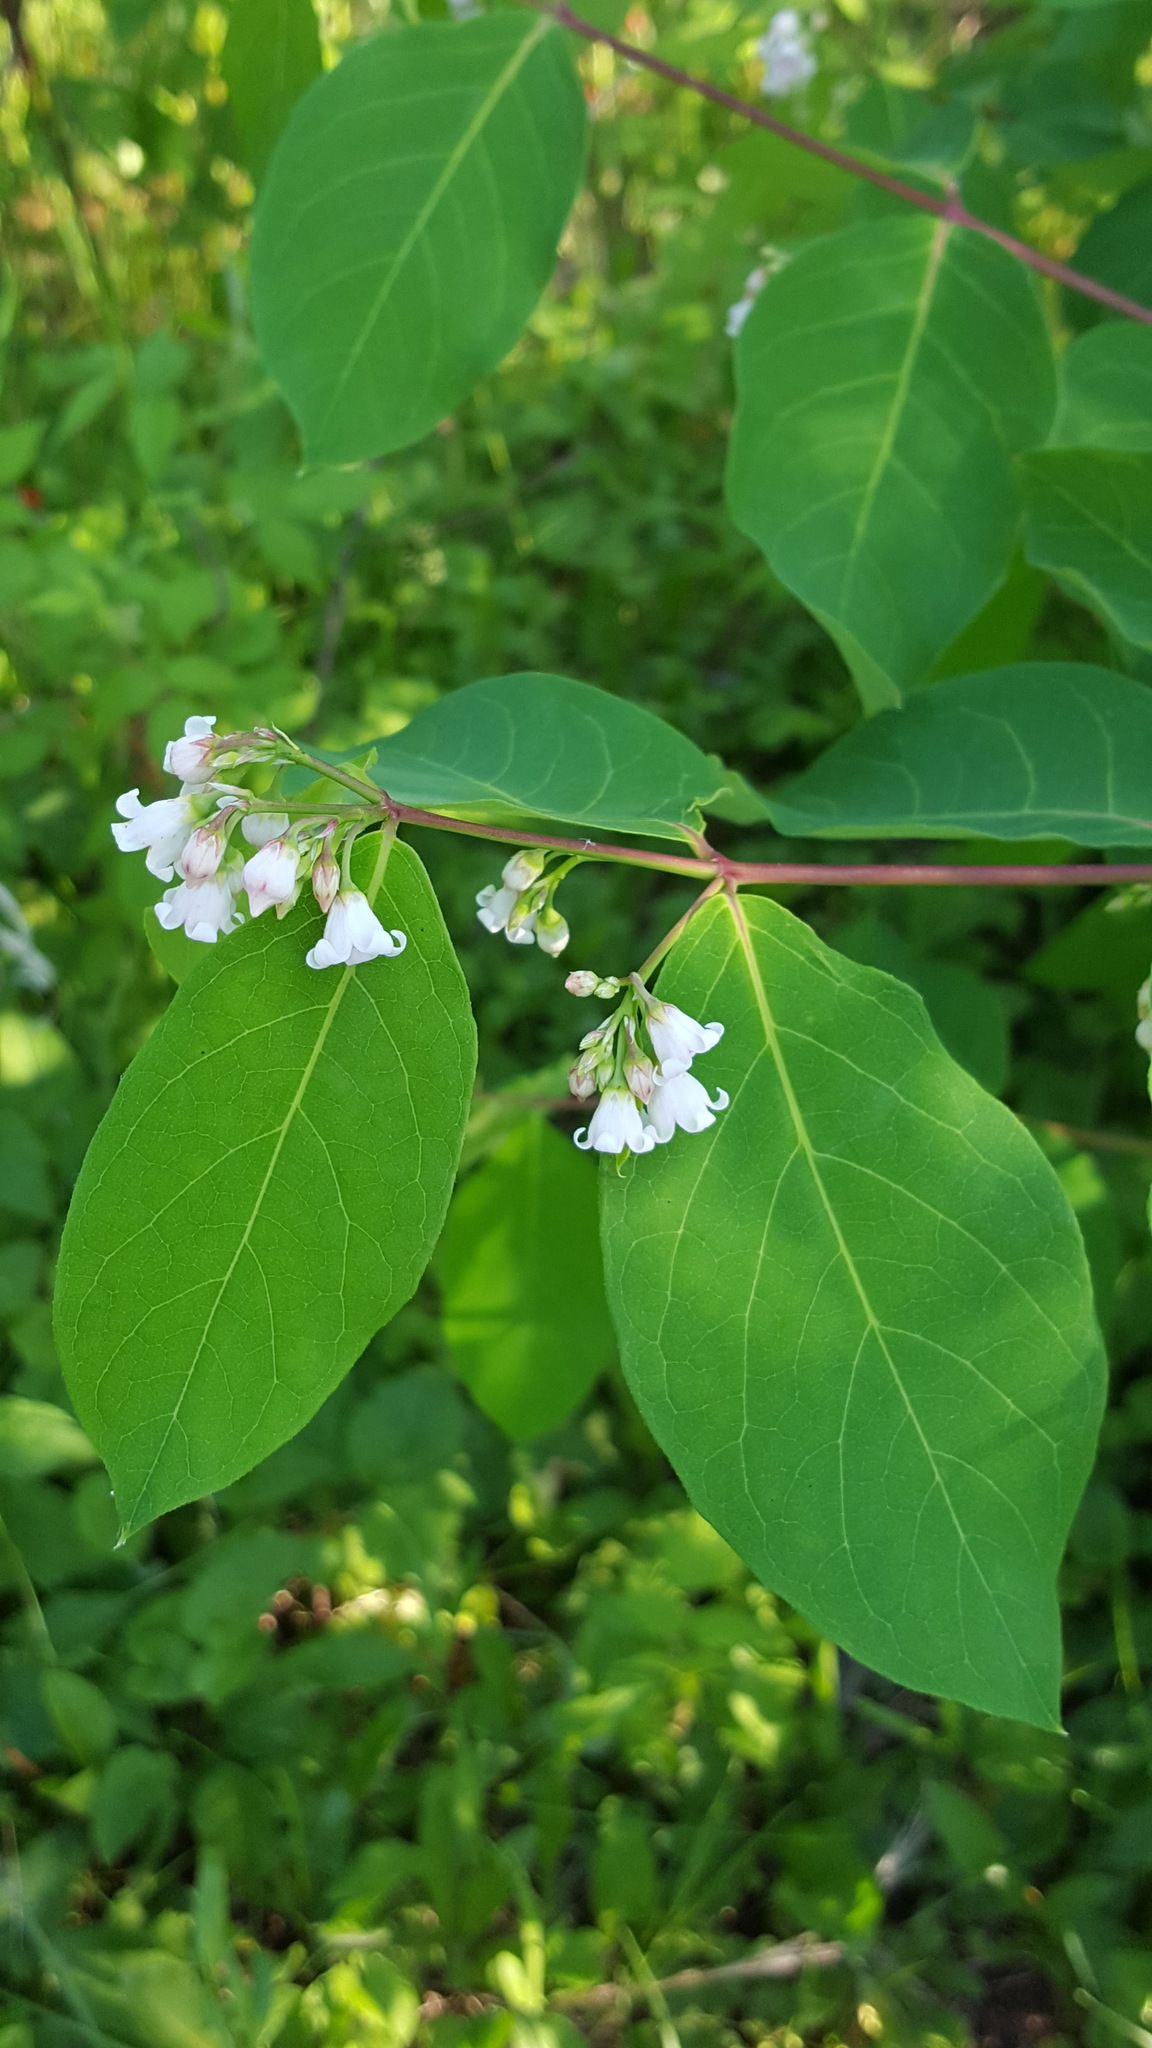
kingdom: Plantae
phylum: Tracheophyta
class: Magnoliopsida
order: Gentianales
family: Apocynaceae
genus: Apocynum
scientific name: Apocynum androsaemifolium
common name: Spreading dogbane
